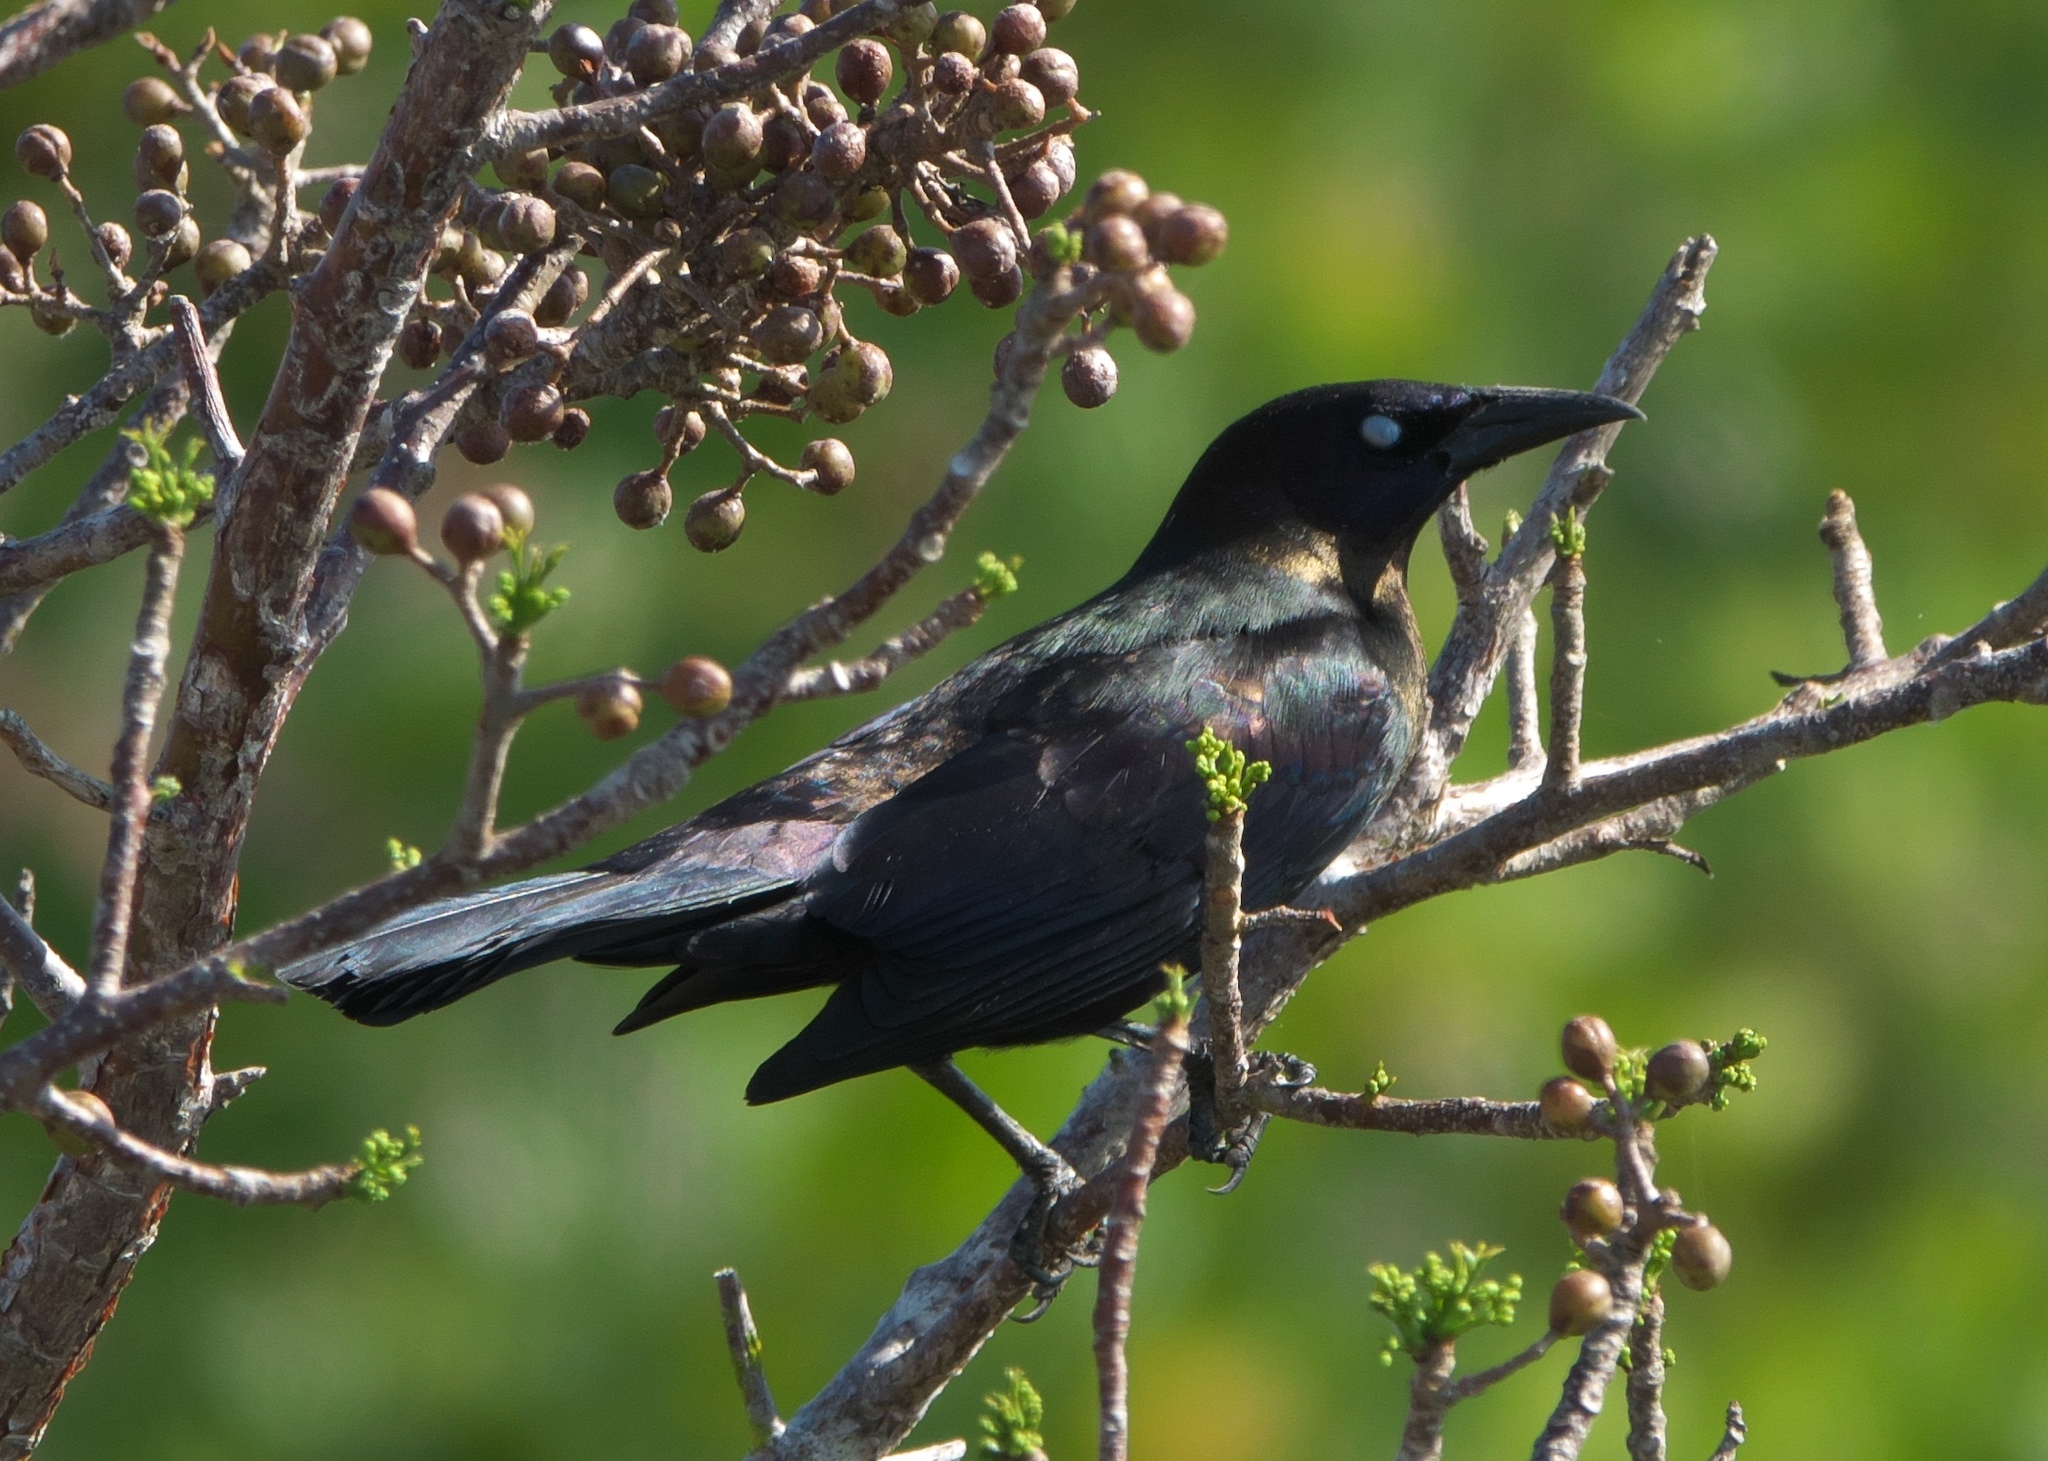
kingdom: Animalia
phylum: Chordata
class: Aves
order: Passeriformes
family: Icteridae
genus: Quiscalus
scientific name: Quiscalus quiscula
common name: Common grackle
